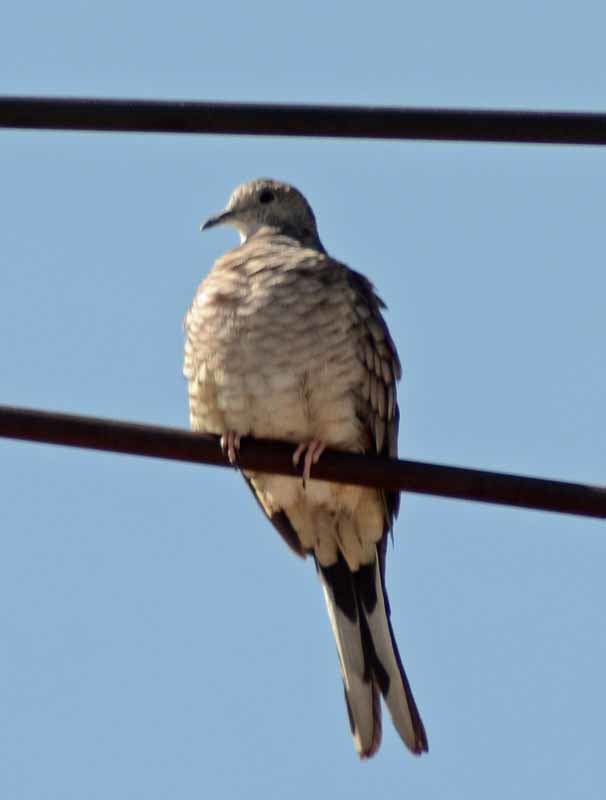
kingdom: Animalia
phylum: Chordata
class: Aves
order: Columbiformes
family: Columbidae
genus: Columbina
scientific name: Columbina inca
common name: Inca dove
